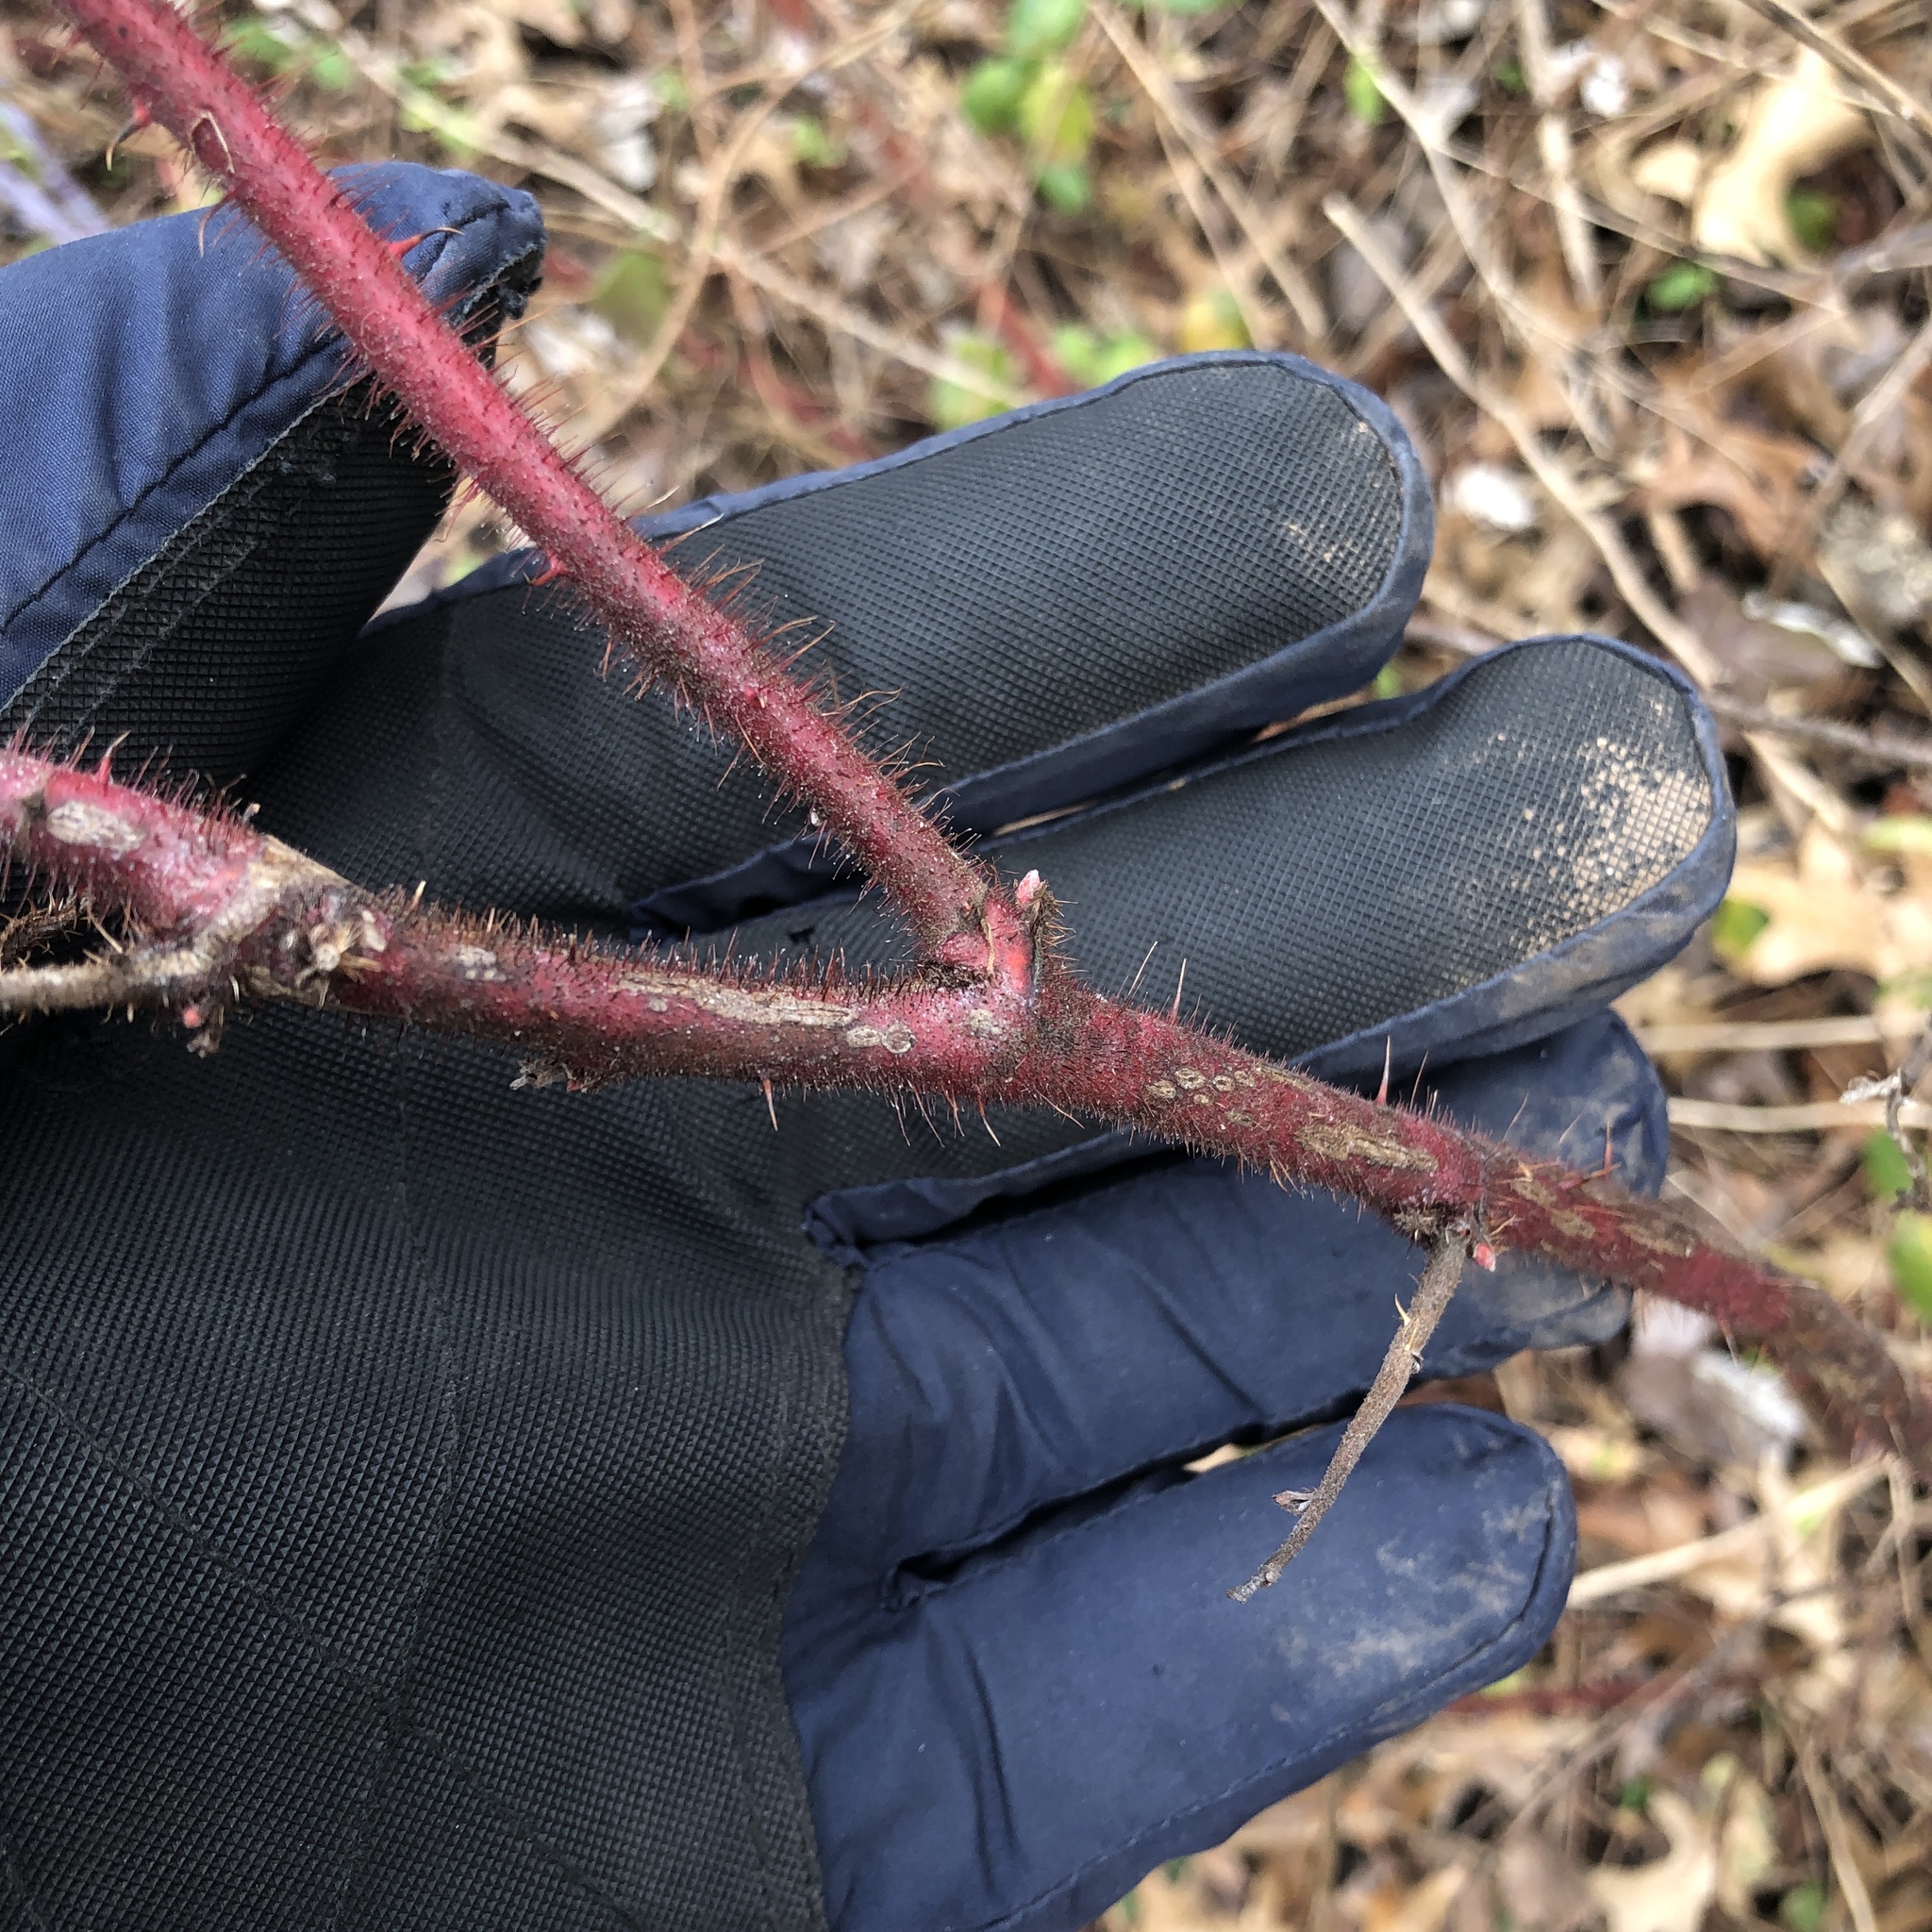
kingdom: Plantae
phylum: Tracheophyta
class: Magnoliopsida
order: Rosales
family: Rosaceae
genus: Rubus
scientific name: Rubus phoenicolasius
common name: Japanese wineberry
